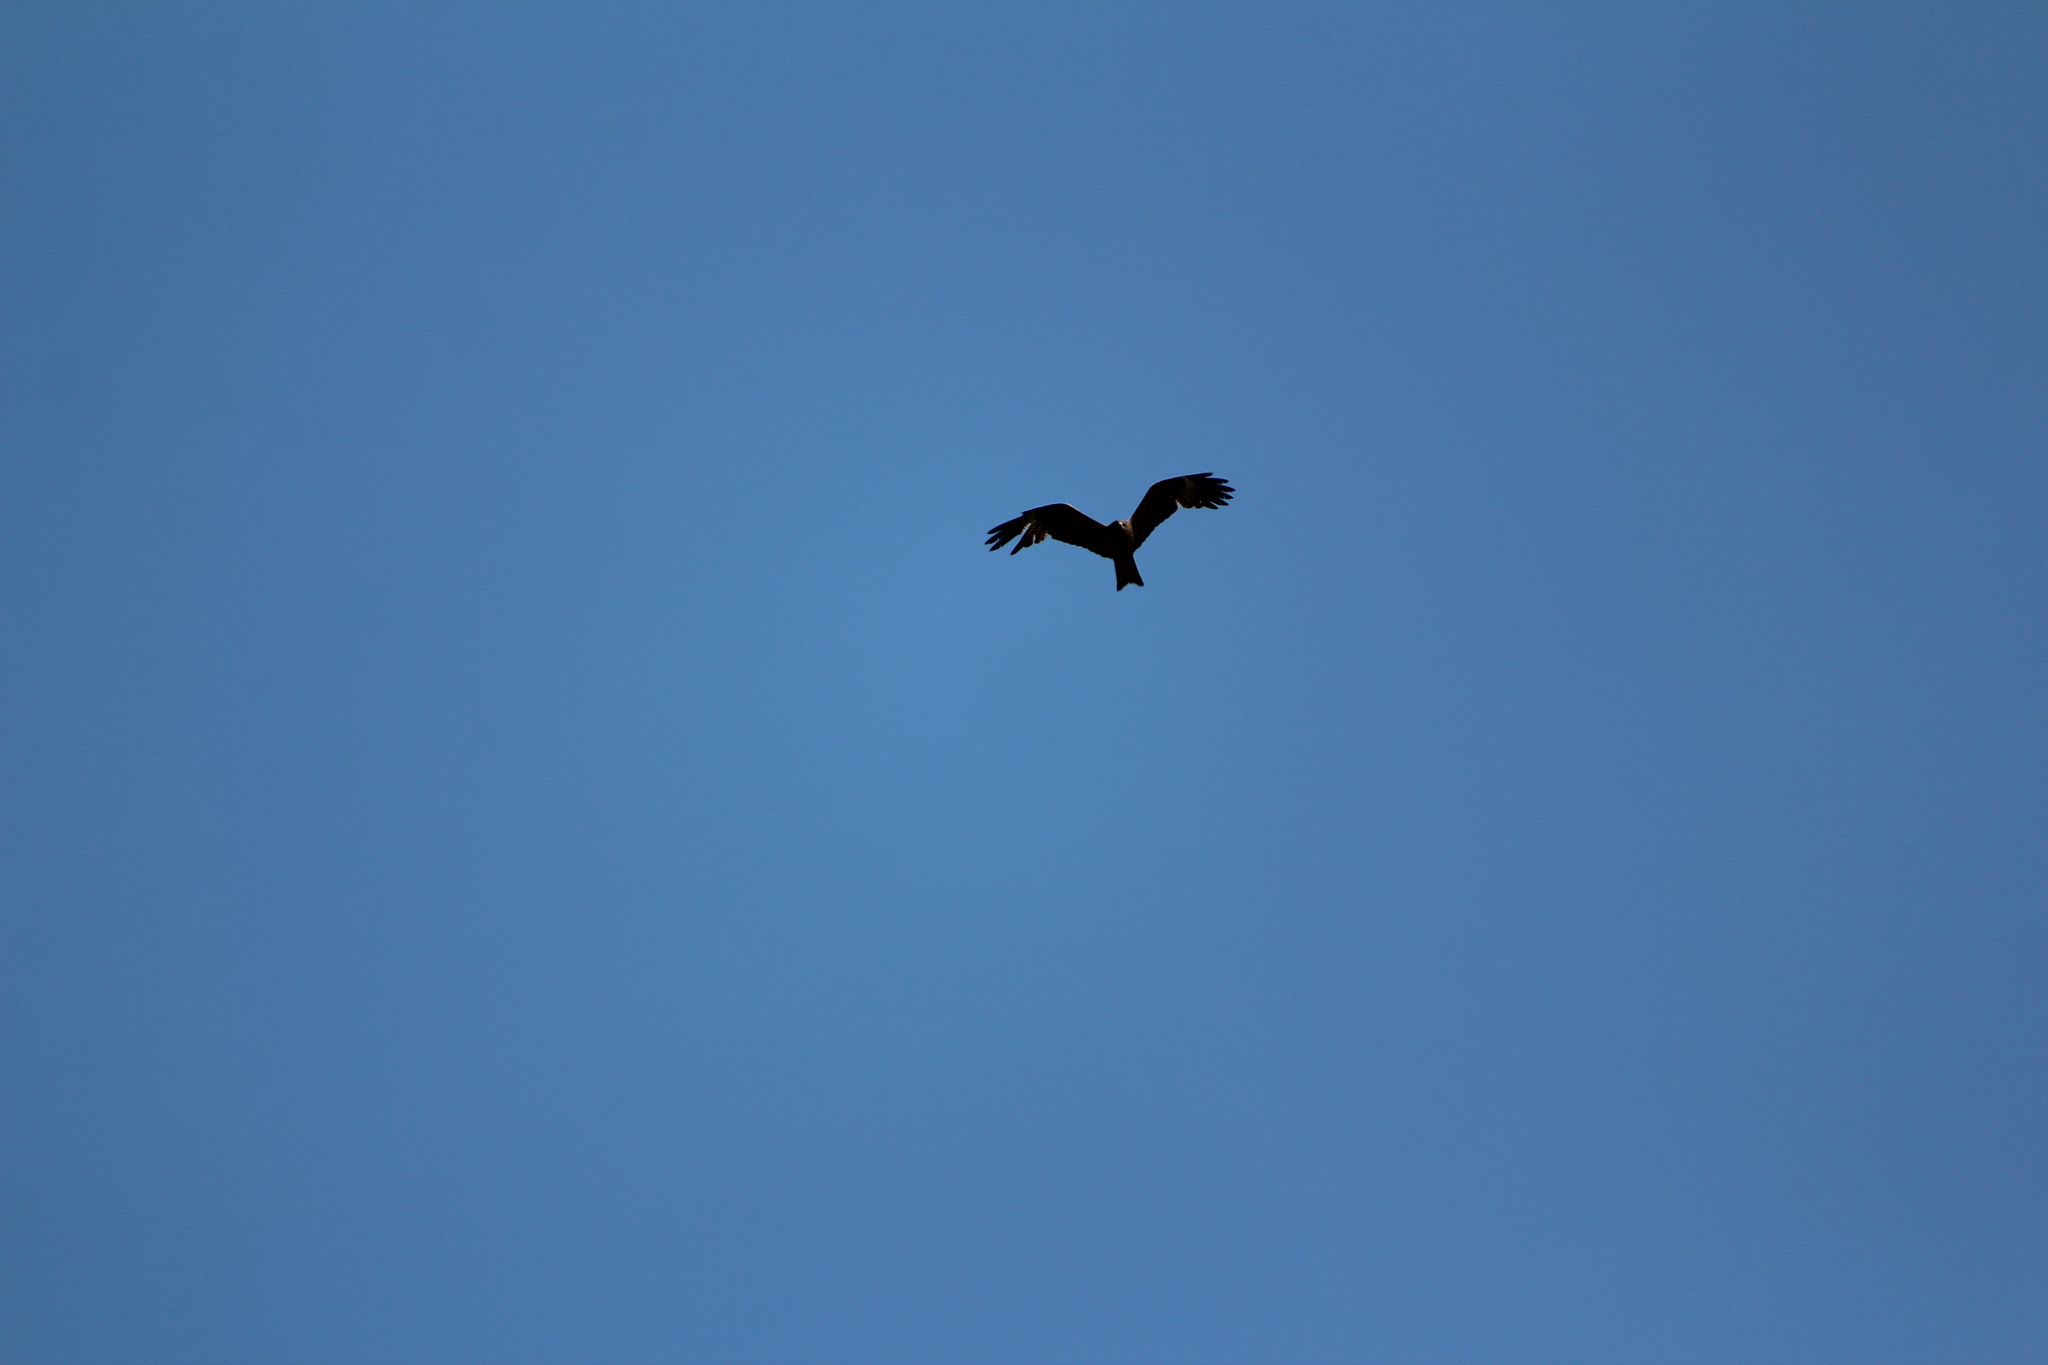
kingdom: Animalia
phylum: Chordata
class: Aves
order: Accipitriformes
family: Accipitridae
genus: Milvus
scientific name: Milvus migrans
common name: Black kite
